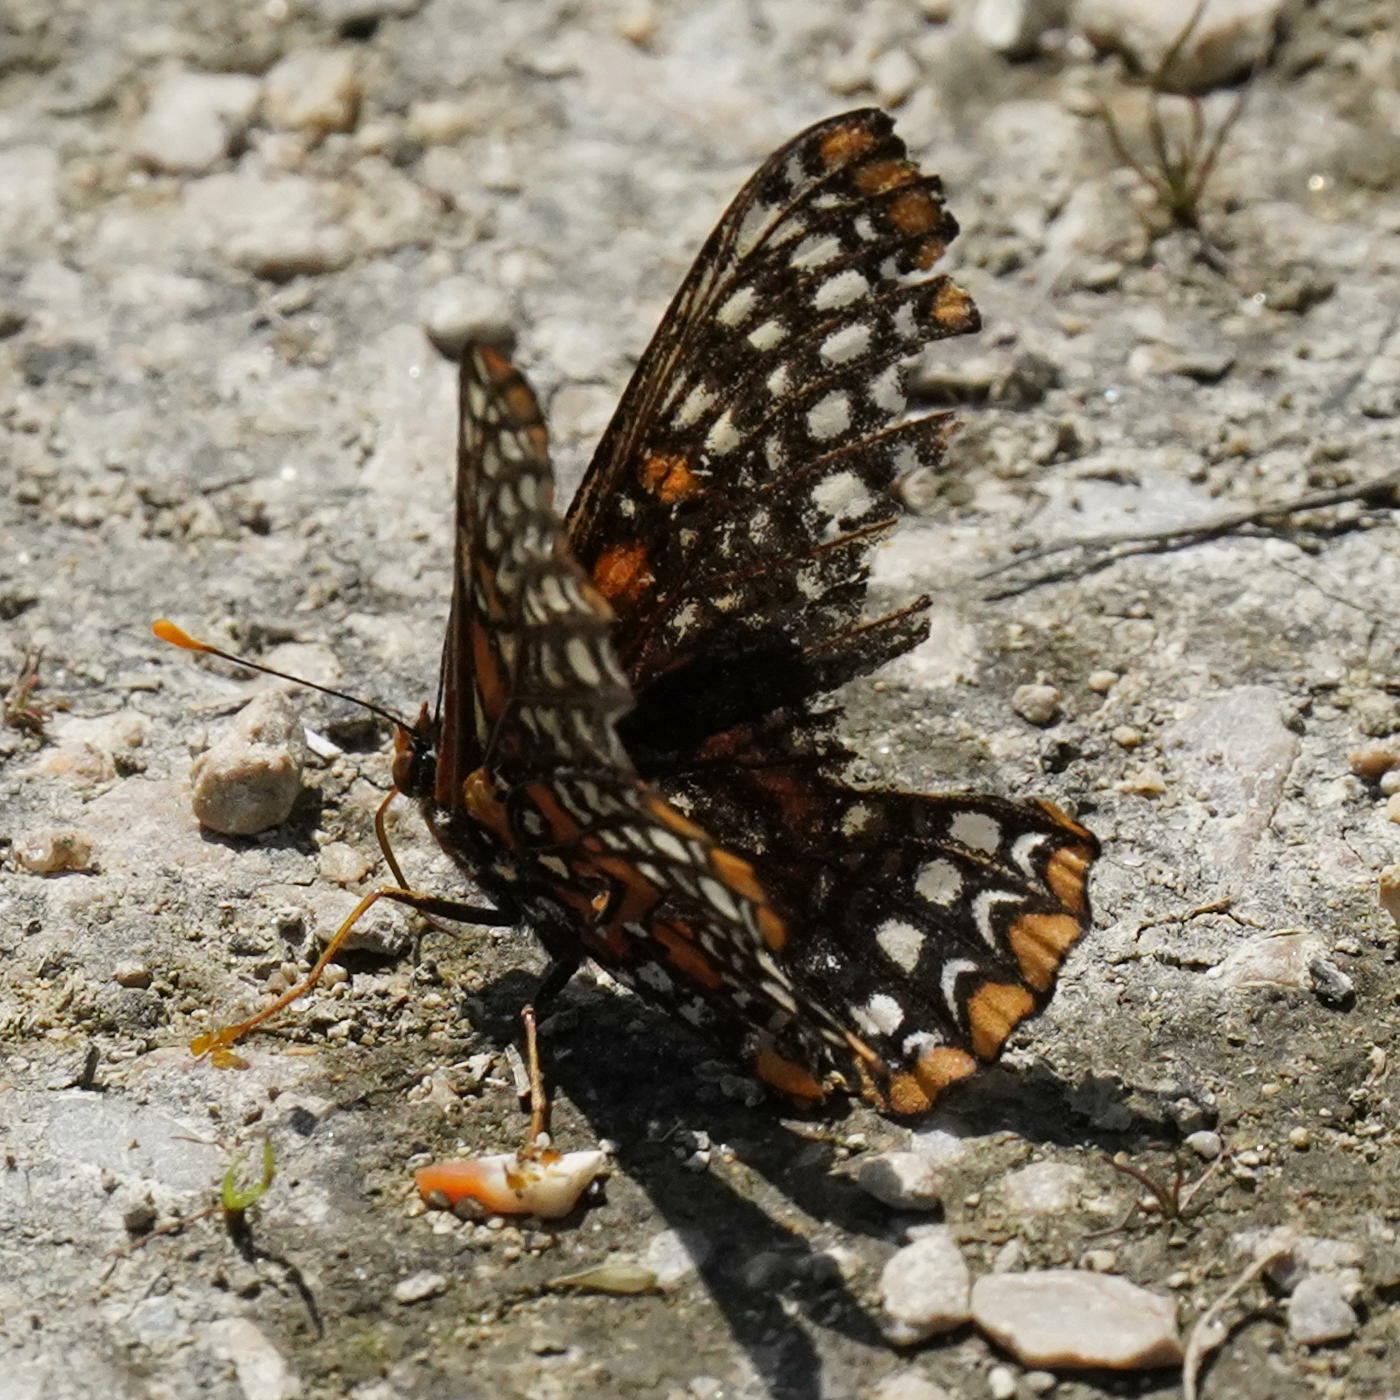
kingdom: Animalia
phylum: Arthropoda
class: Insecta
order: Lepidoptera
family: Nymphalidae
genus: Euphydryas
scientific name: Euphydryas phaeton
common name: Baltimore checkerspot
